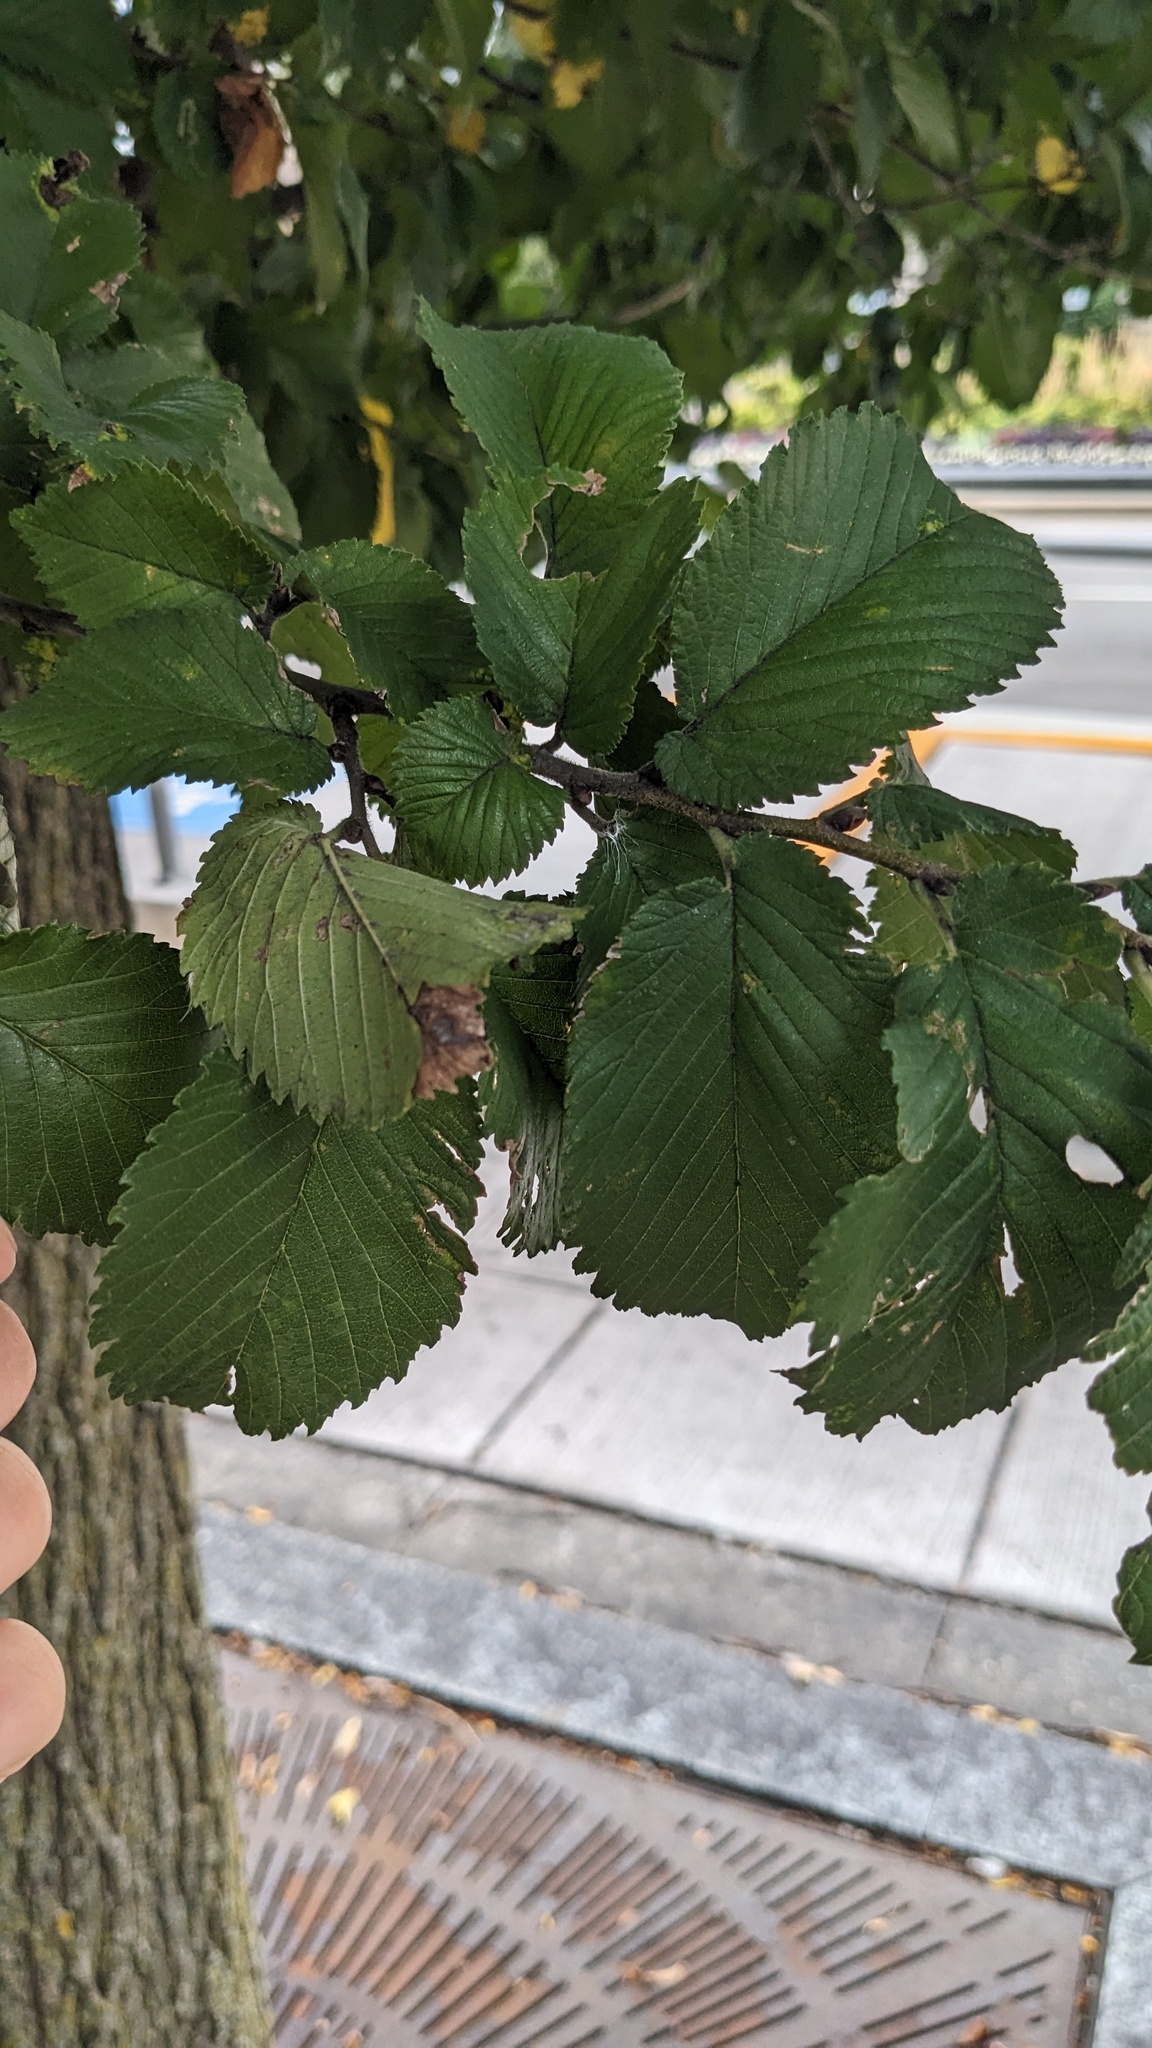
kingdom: Animalia
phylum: Arthropoda
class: Insecta
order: Hemiptera
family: Aphididae
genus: Tetraneura
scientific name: Tetraneura nigriabdominalis
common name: Aphid
